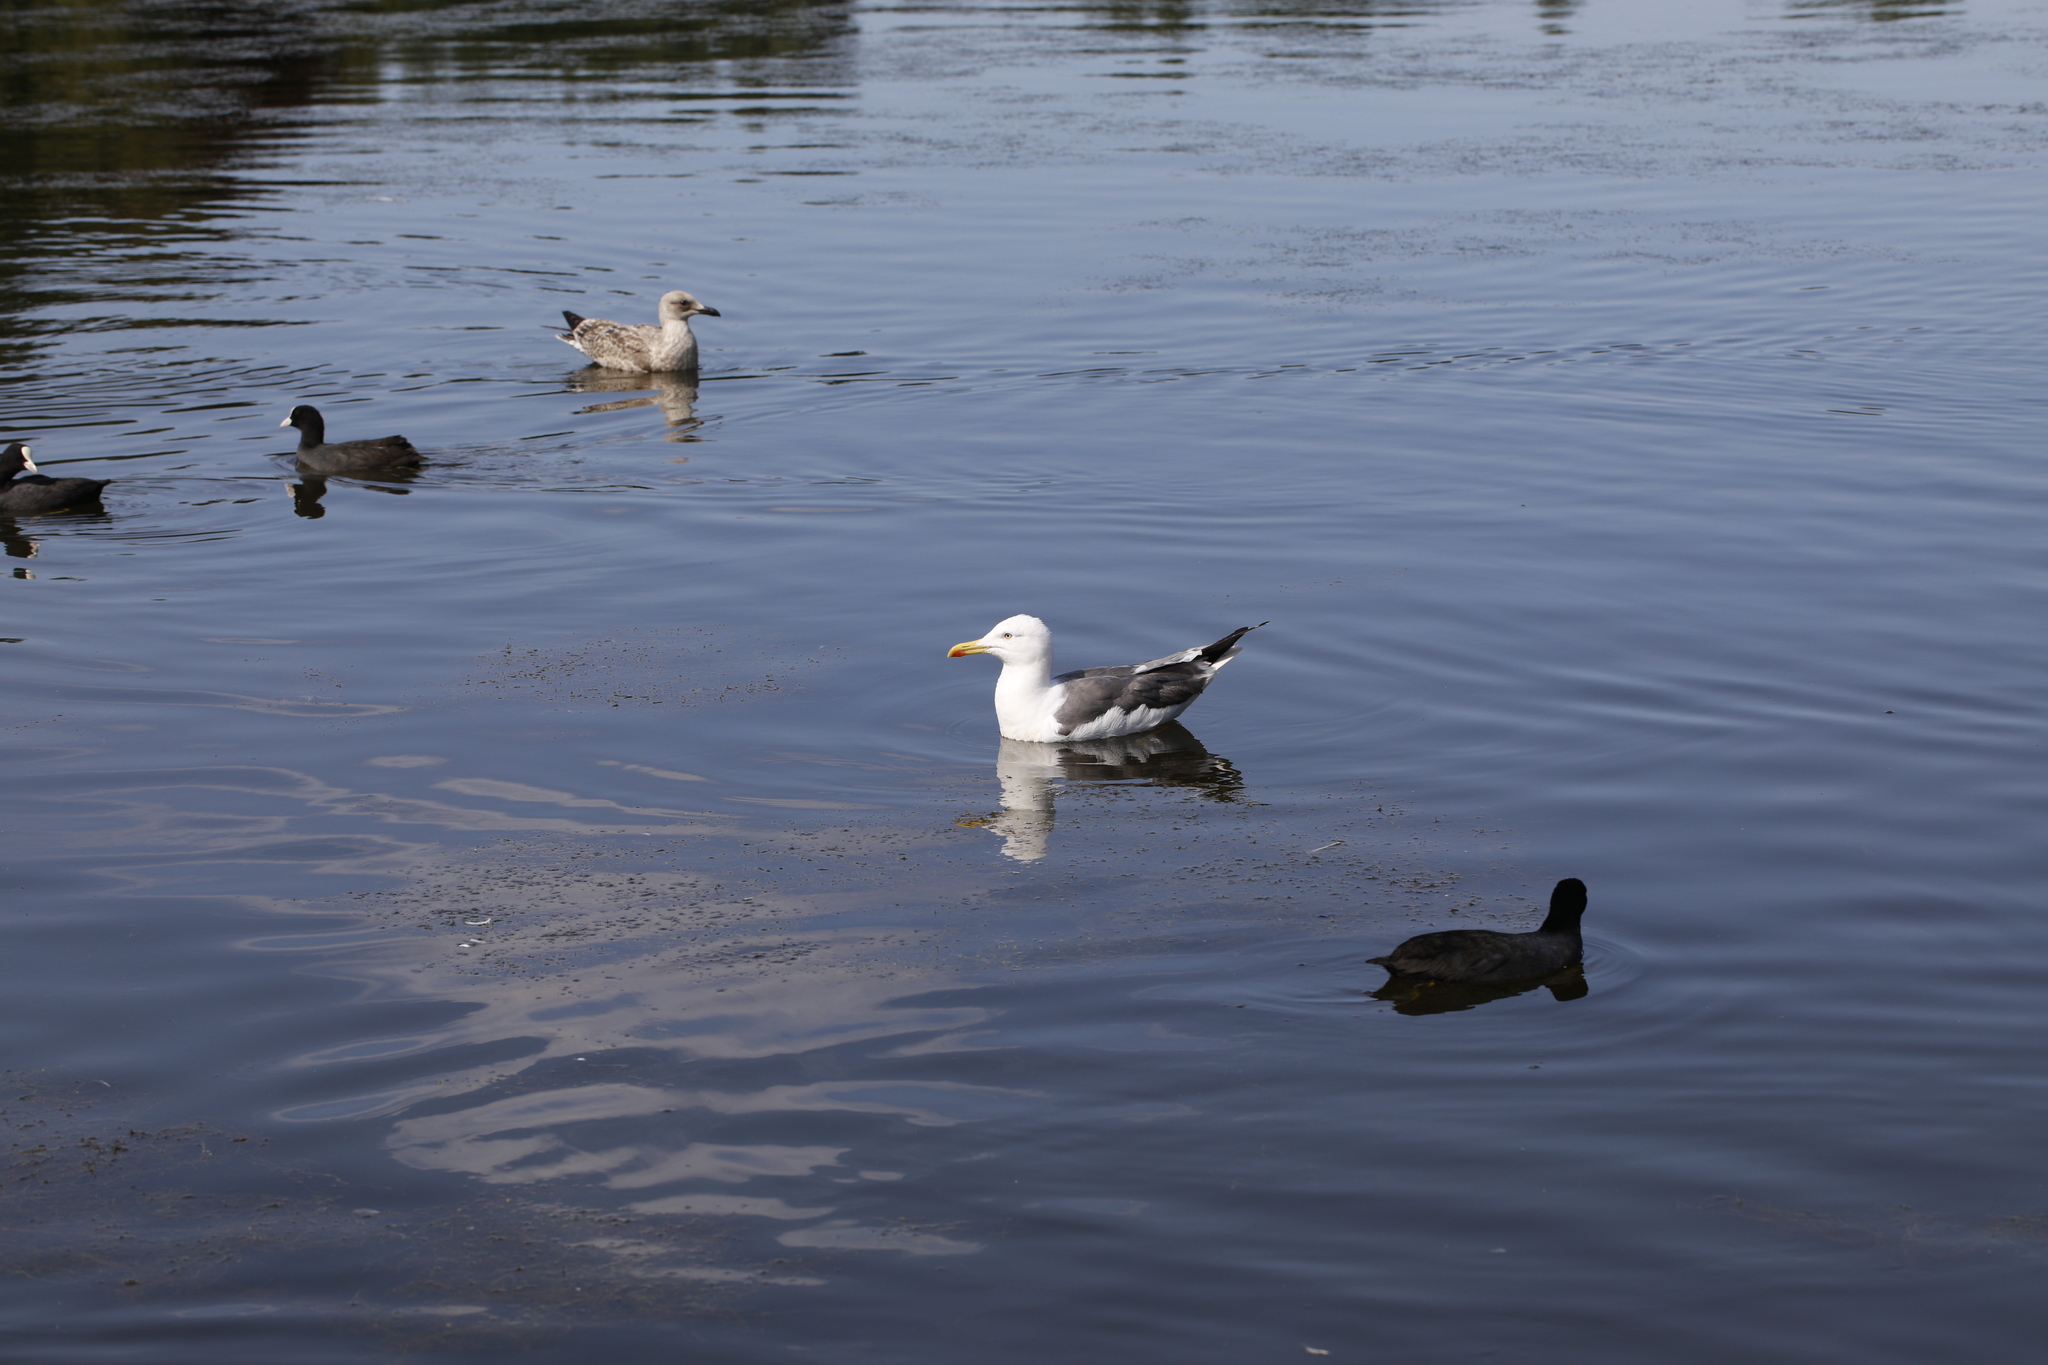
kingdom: Animalia
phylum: Chordata
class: Aves
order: Charadriiformes
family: Laridae
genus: Larus
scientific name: Larus fuscus
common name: Lesser black-backed gull
